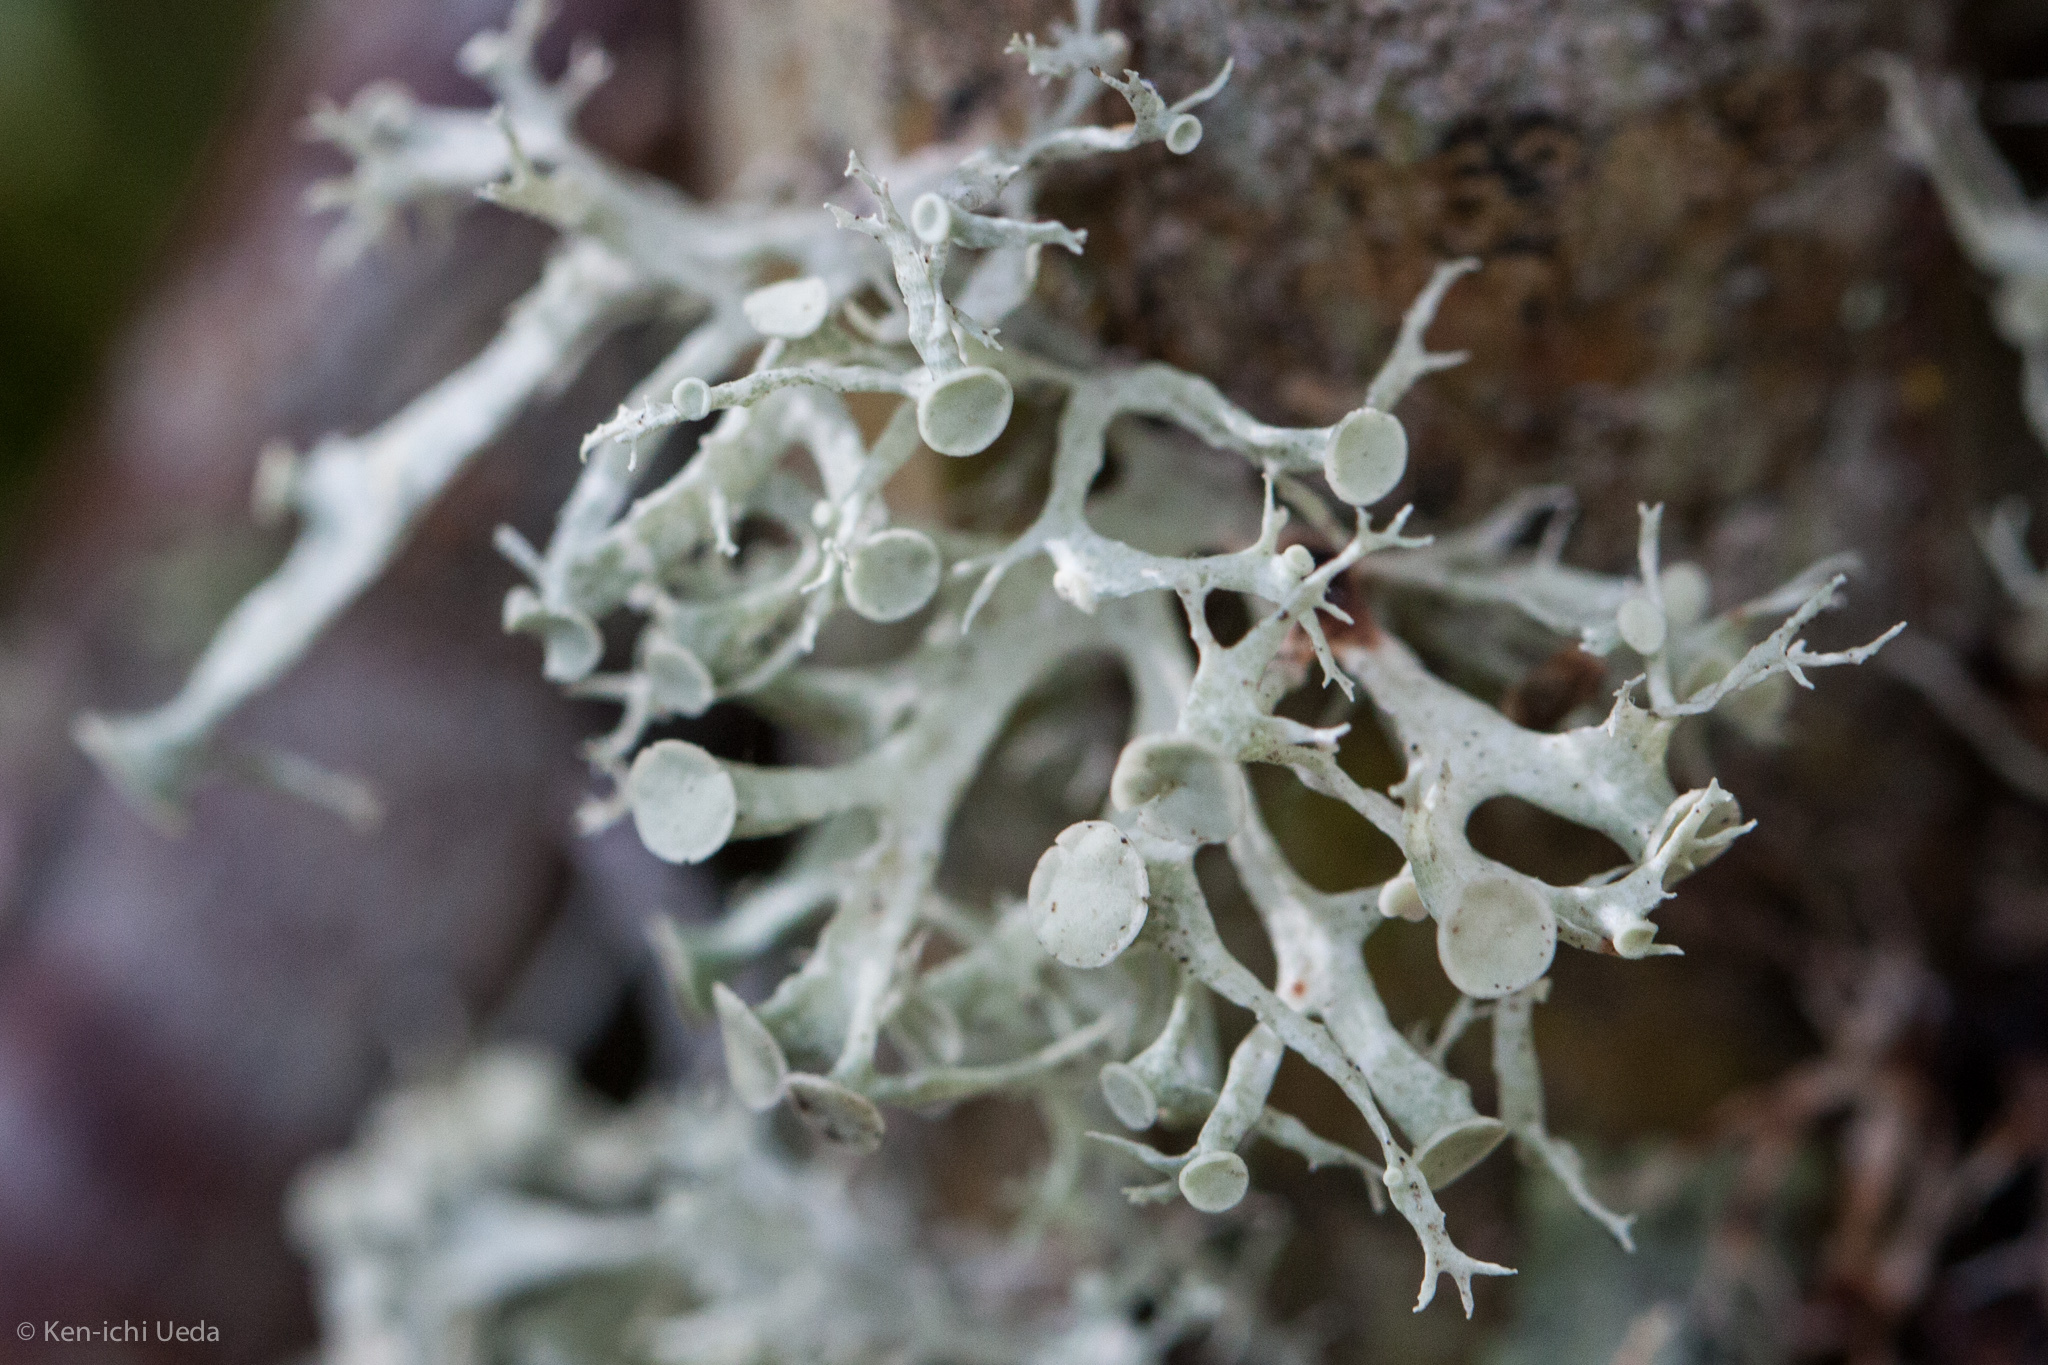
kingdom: Fungi
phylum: Ascomycota
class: Lecanoromycetes
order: Lecanorales
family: Ramalinaceae
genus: Ramalina
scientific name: Ramalina glaucescens
